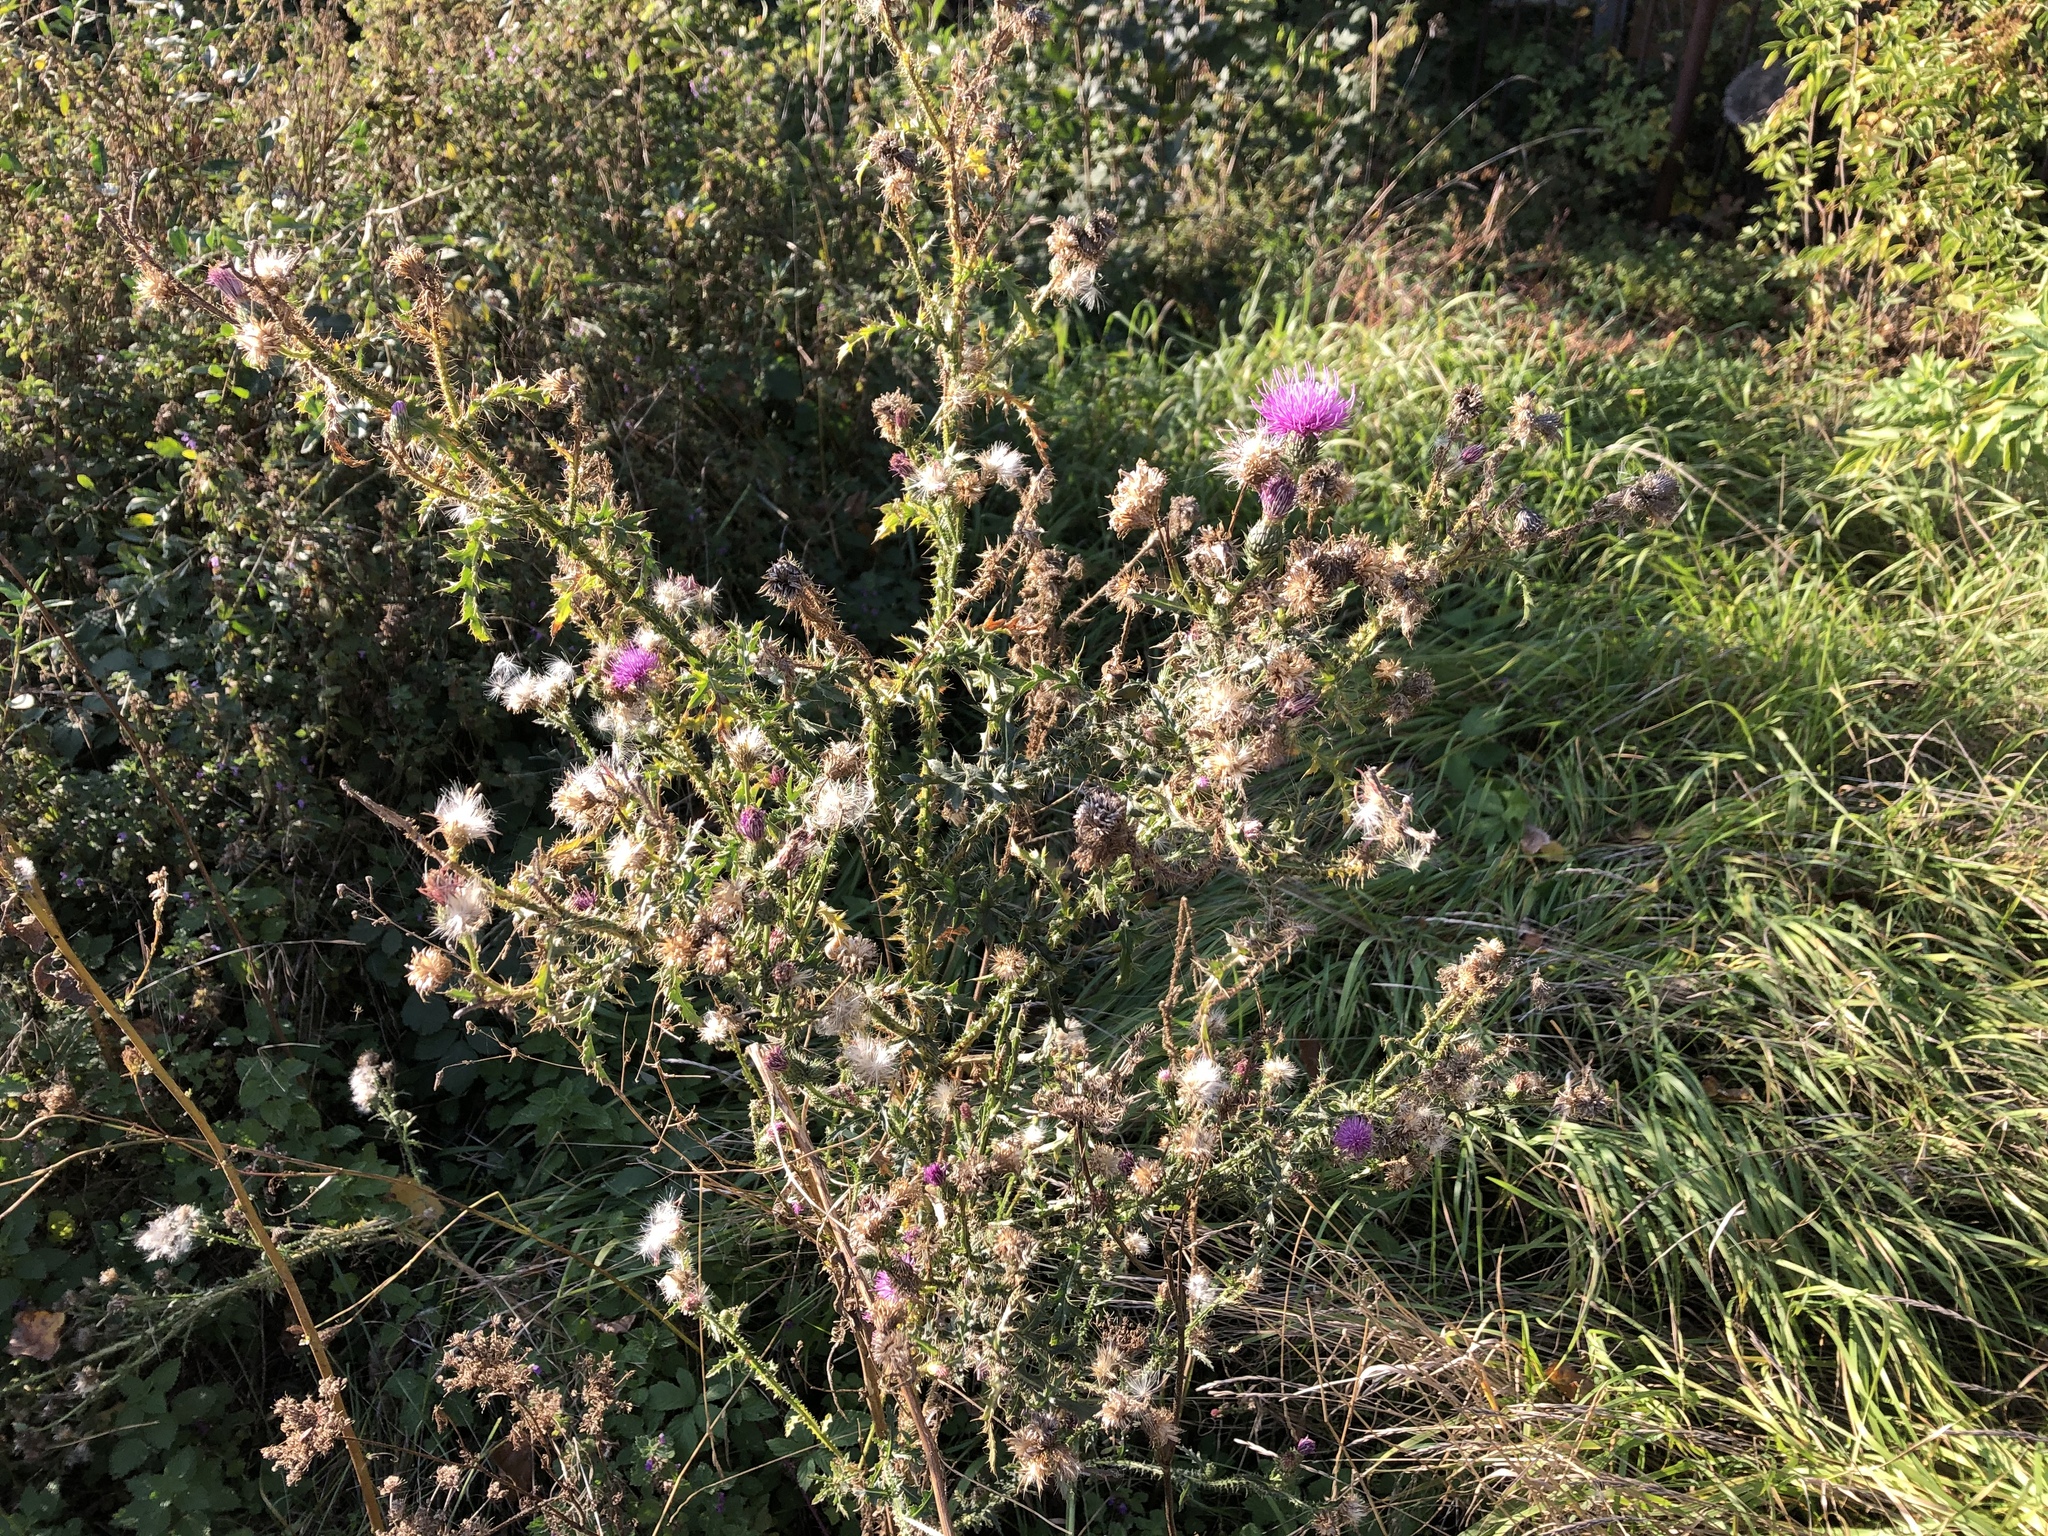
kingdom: Plantae
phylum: Tracheophyta
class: Magnoliopsida
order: Asterales
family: Asteraceae
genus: Carduus
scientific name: Carduus acanthoides
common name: Plumeless thistle
